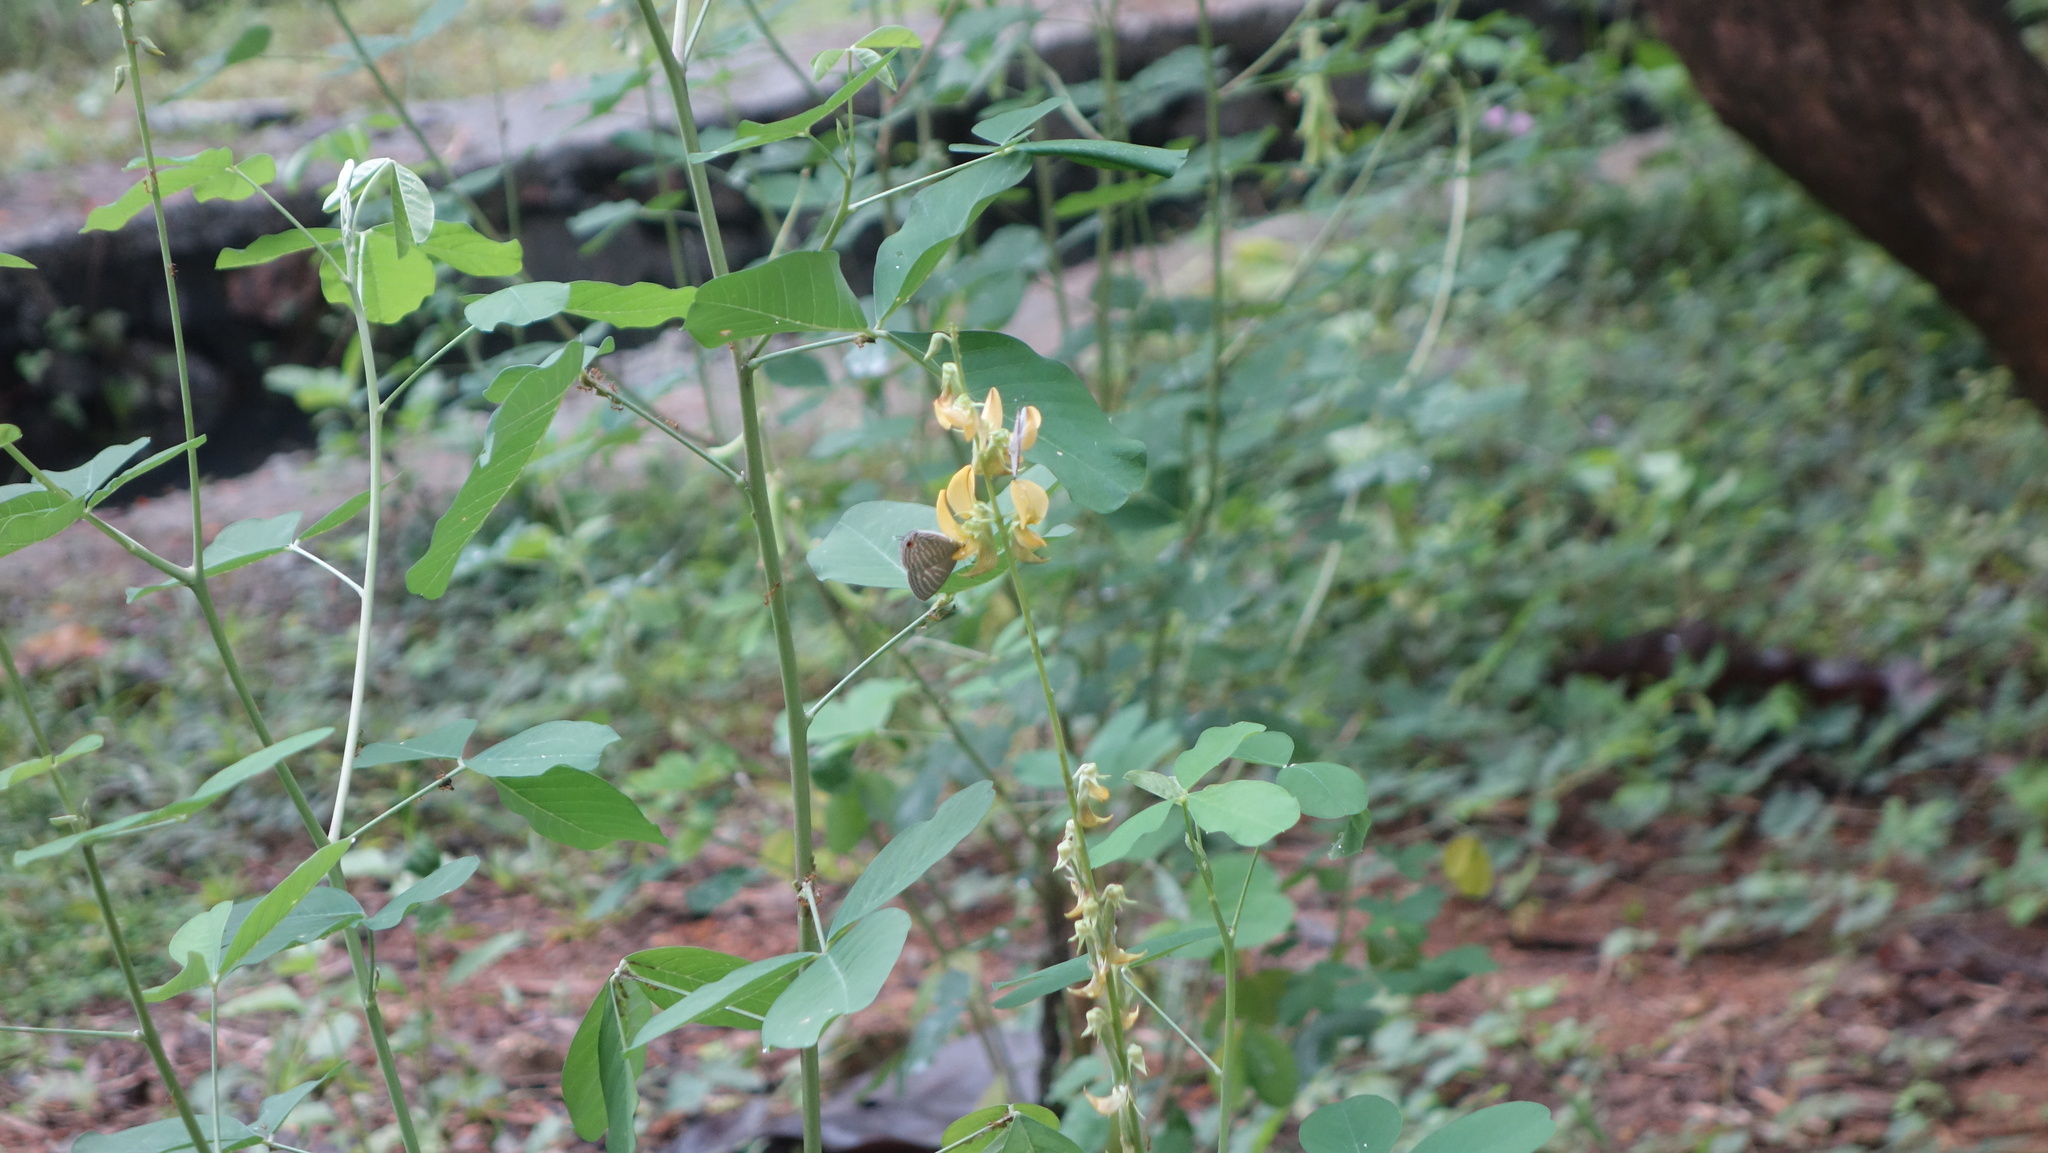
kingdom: Animalia
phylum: Arthropoda
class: Insecta
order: Lepidoptera
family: Lycaenidae
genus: Jamides
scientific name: Jamides celeno
